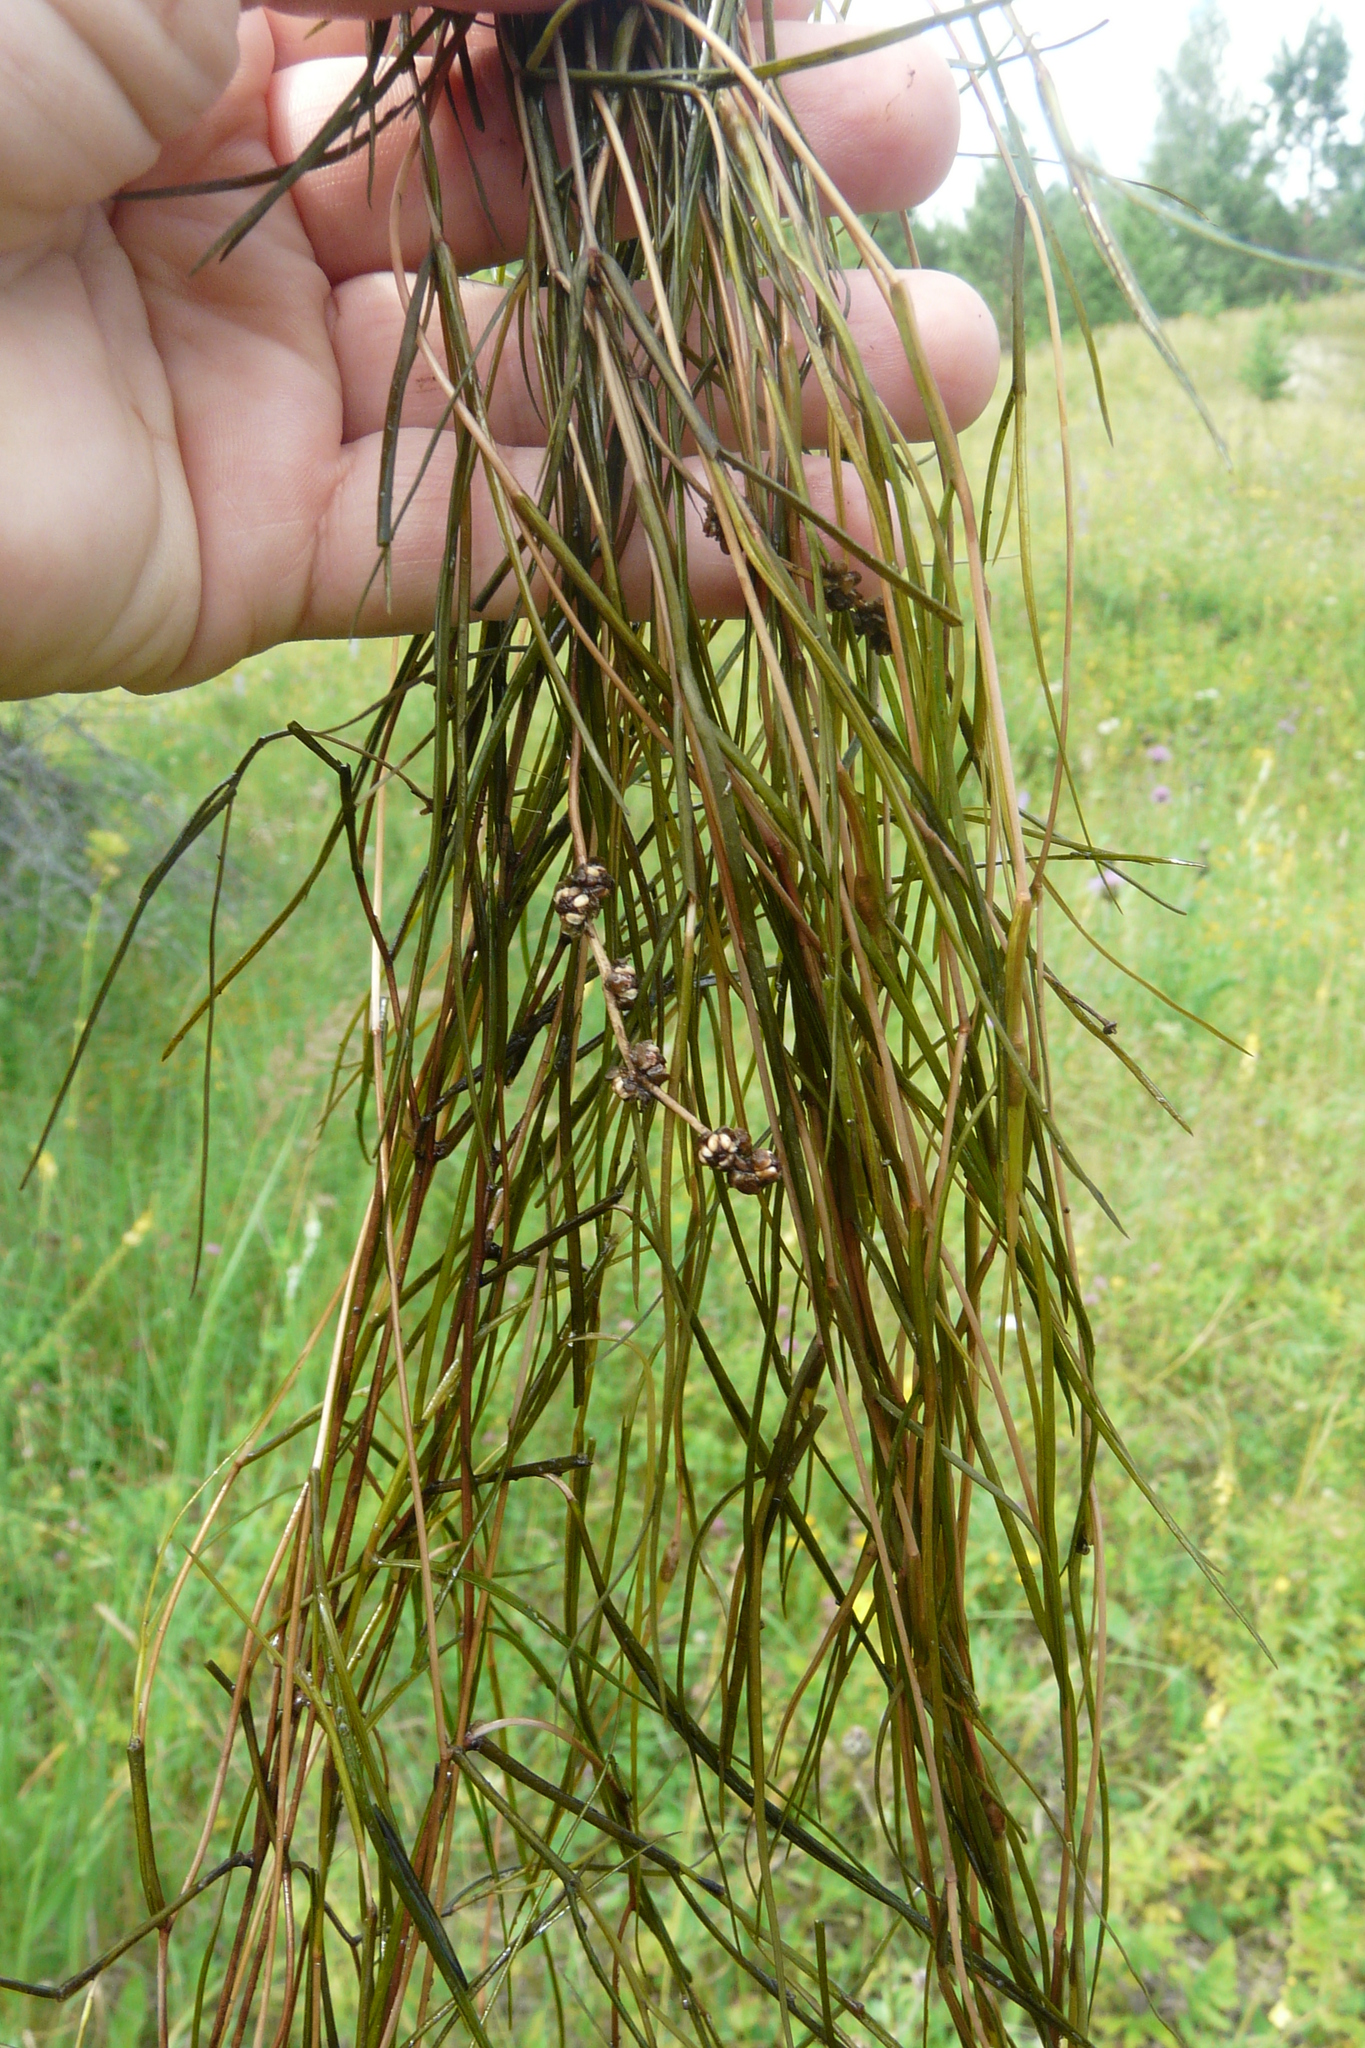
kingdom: Plantae
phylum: Tracheophyta
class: Liliopsida
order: Alismatales
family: Potamogetonaceae
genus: Stuckenia
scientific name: Stuckenia pectinata
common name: Sago pondweed
